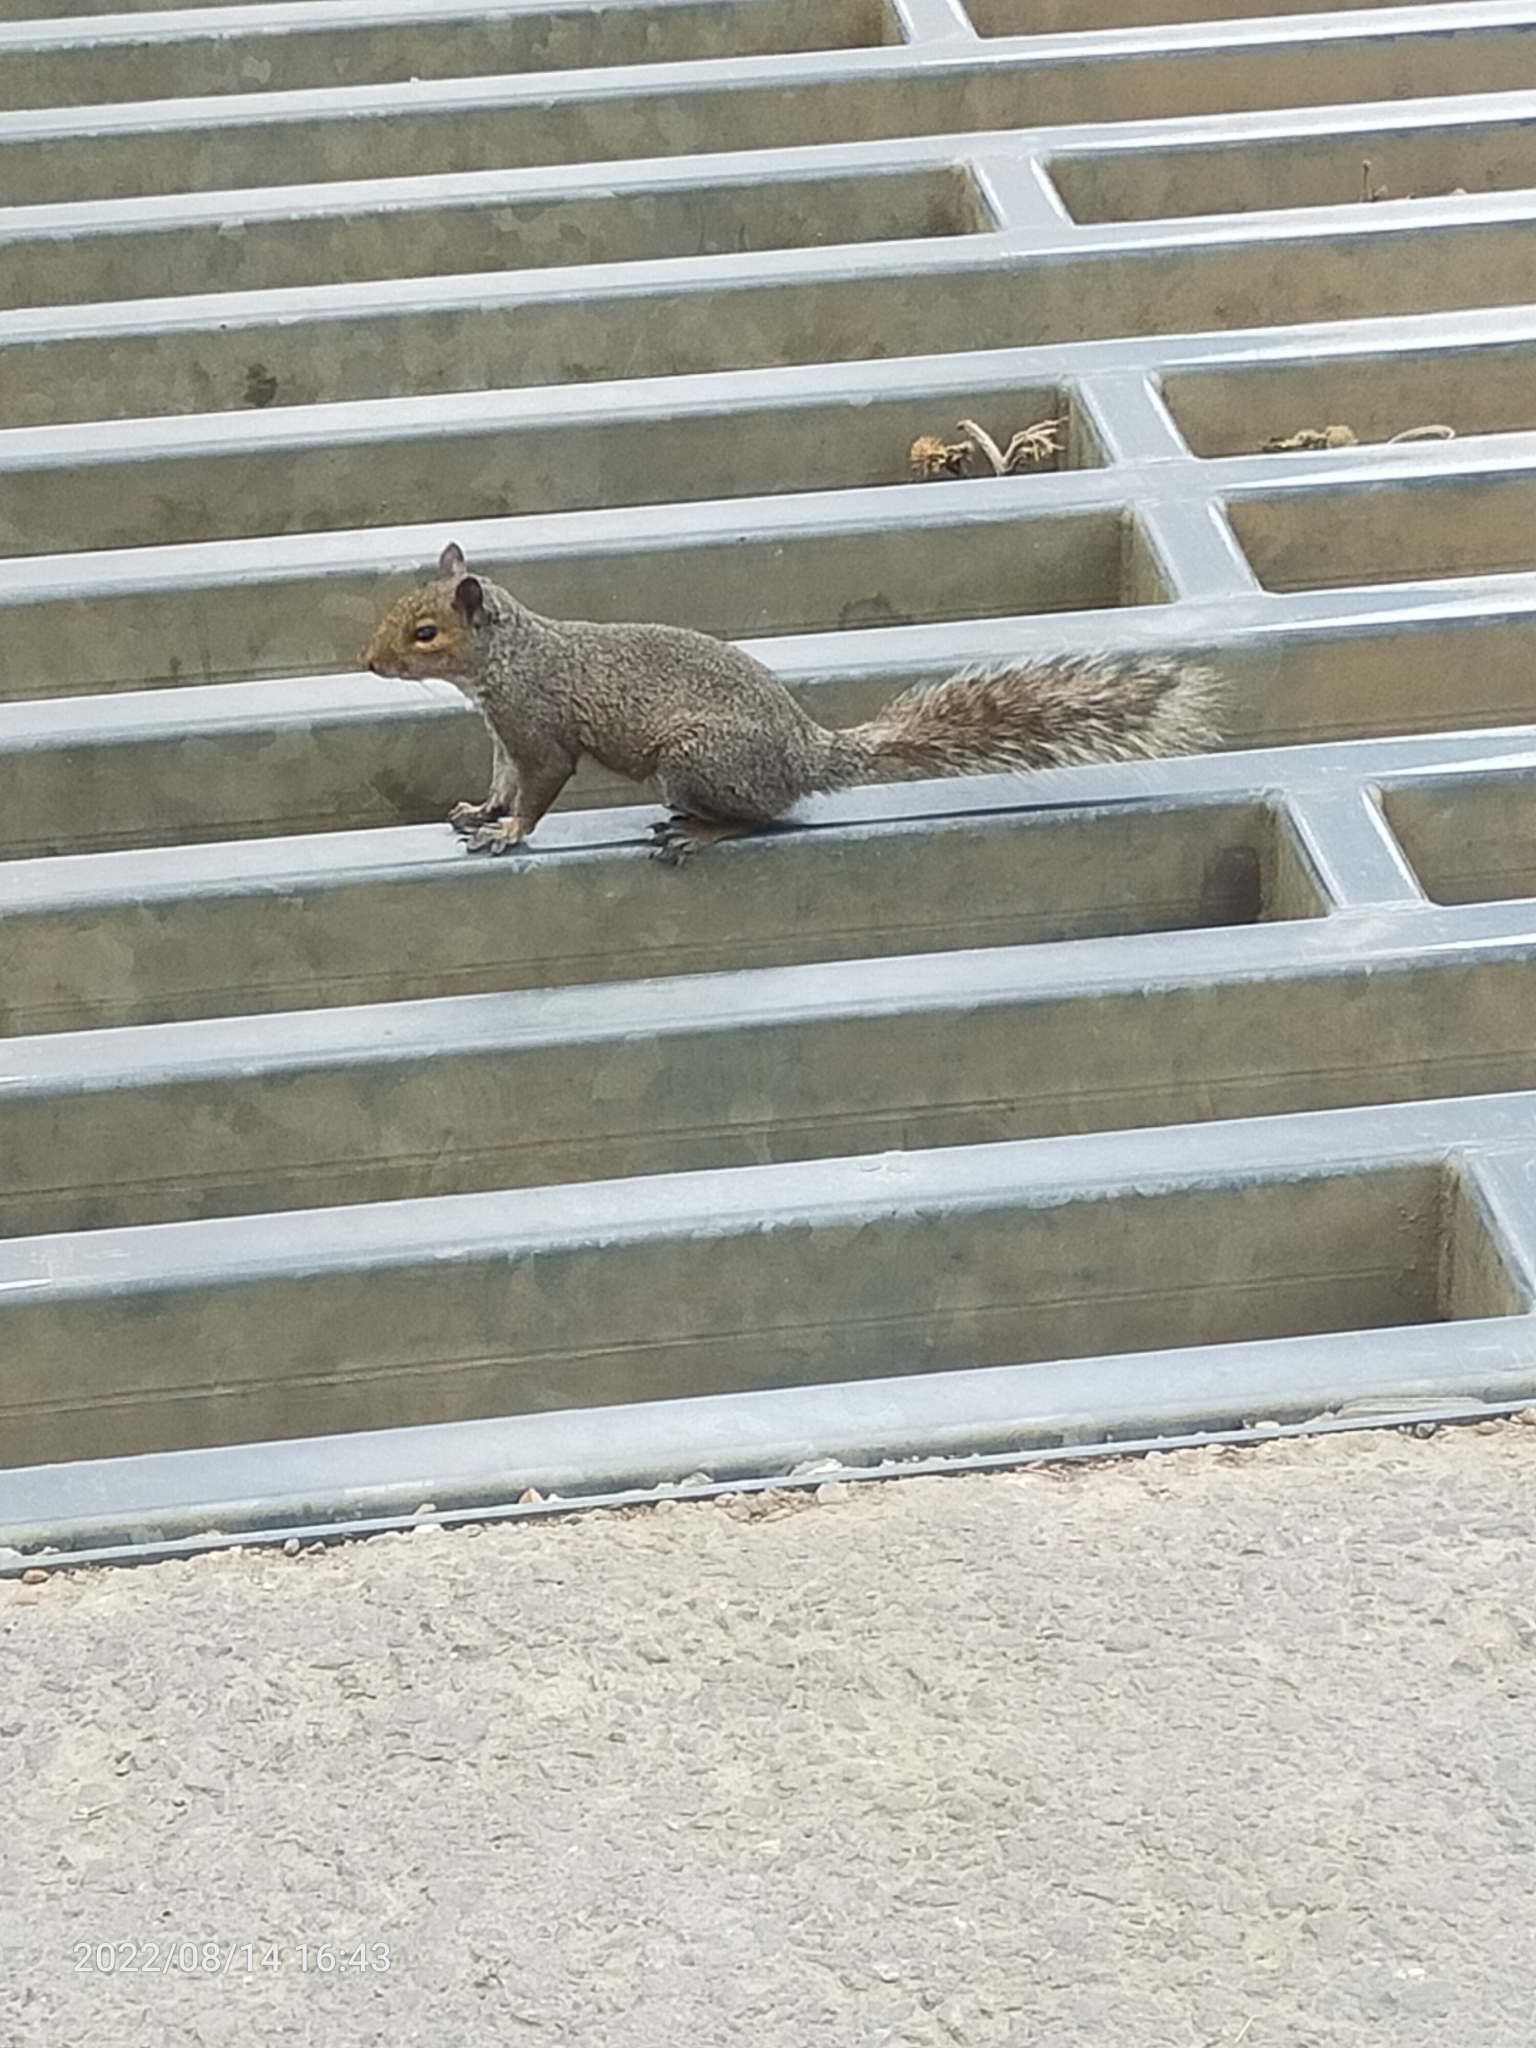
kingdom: Animalia
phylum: Chordata
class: Mammalia
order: Rodentia
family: Sciuridae
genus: Sciurus
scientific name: Sciurus carolinensis
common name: Eastern gray squirrel
